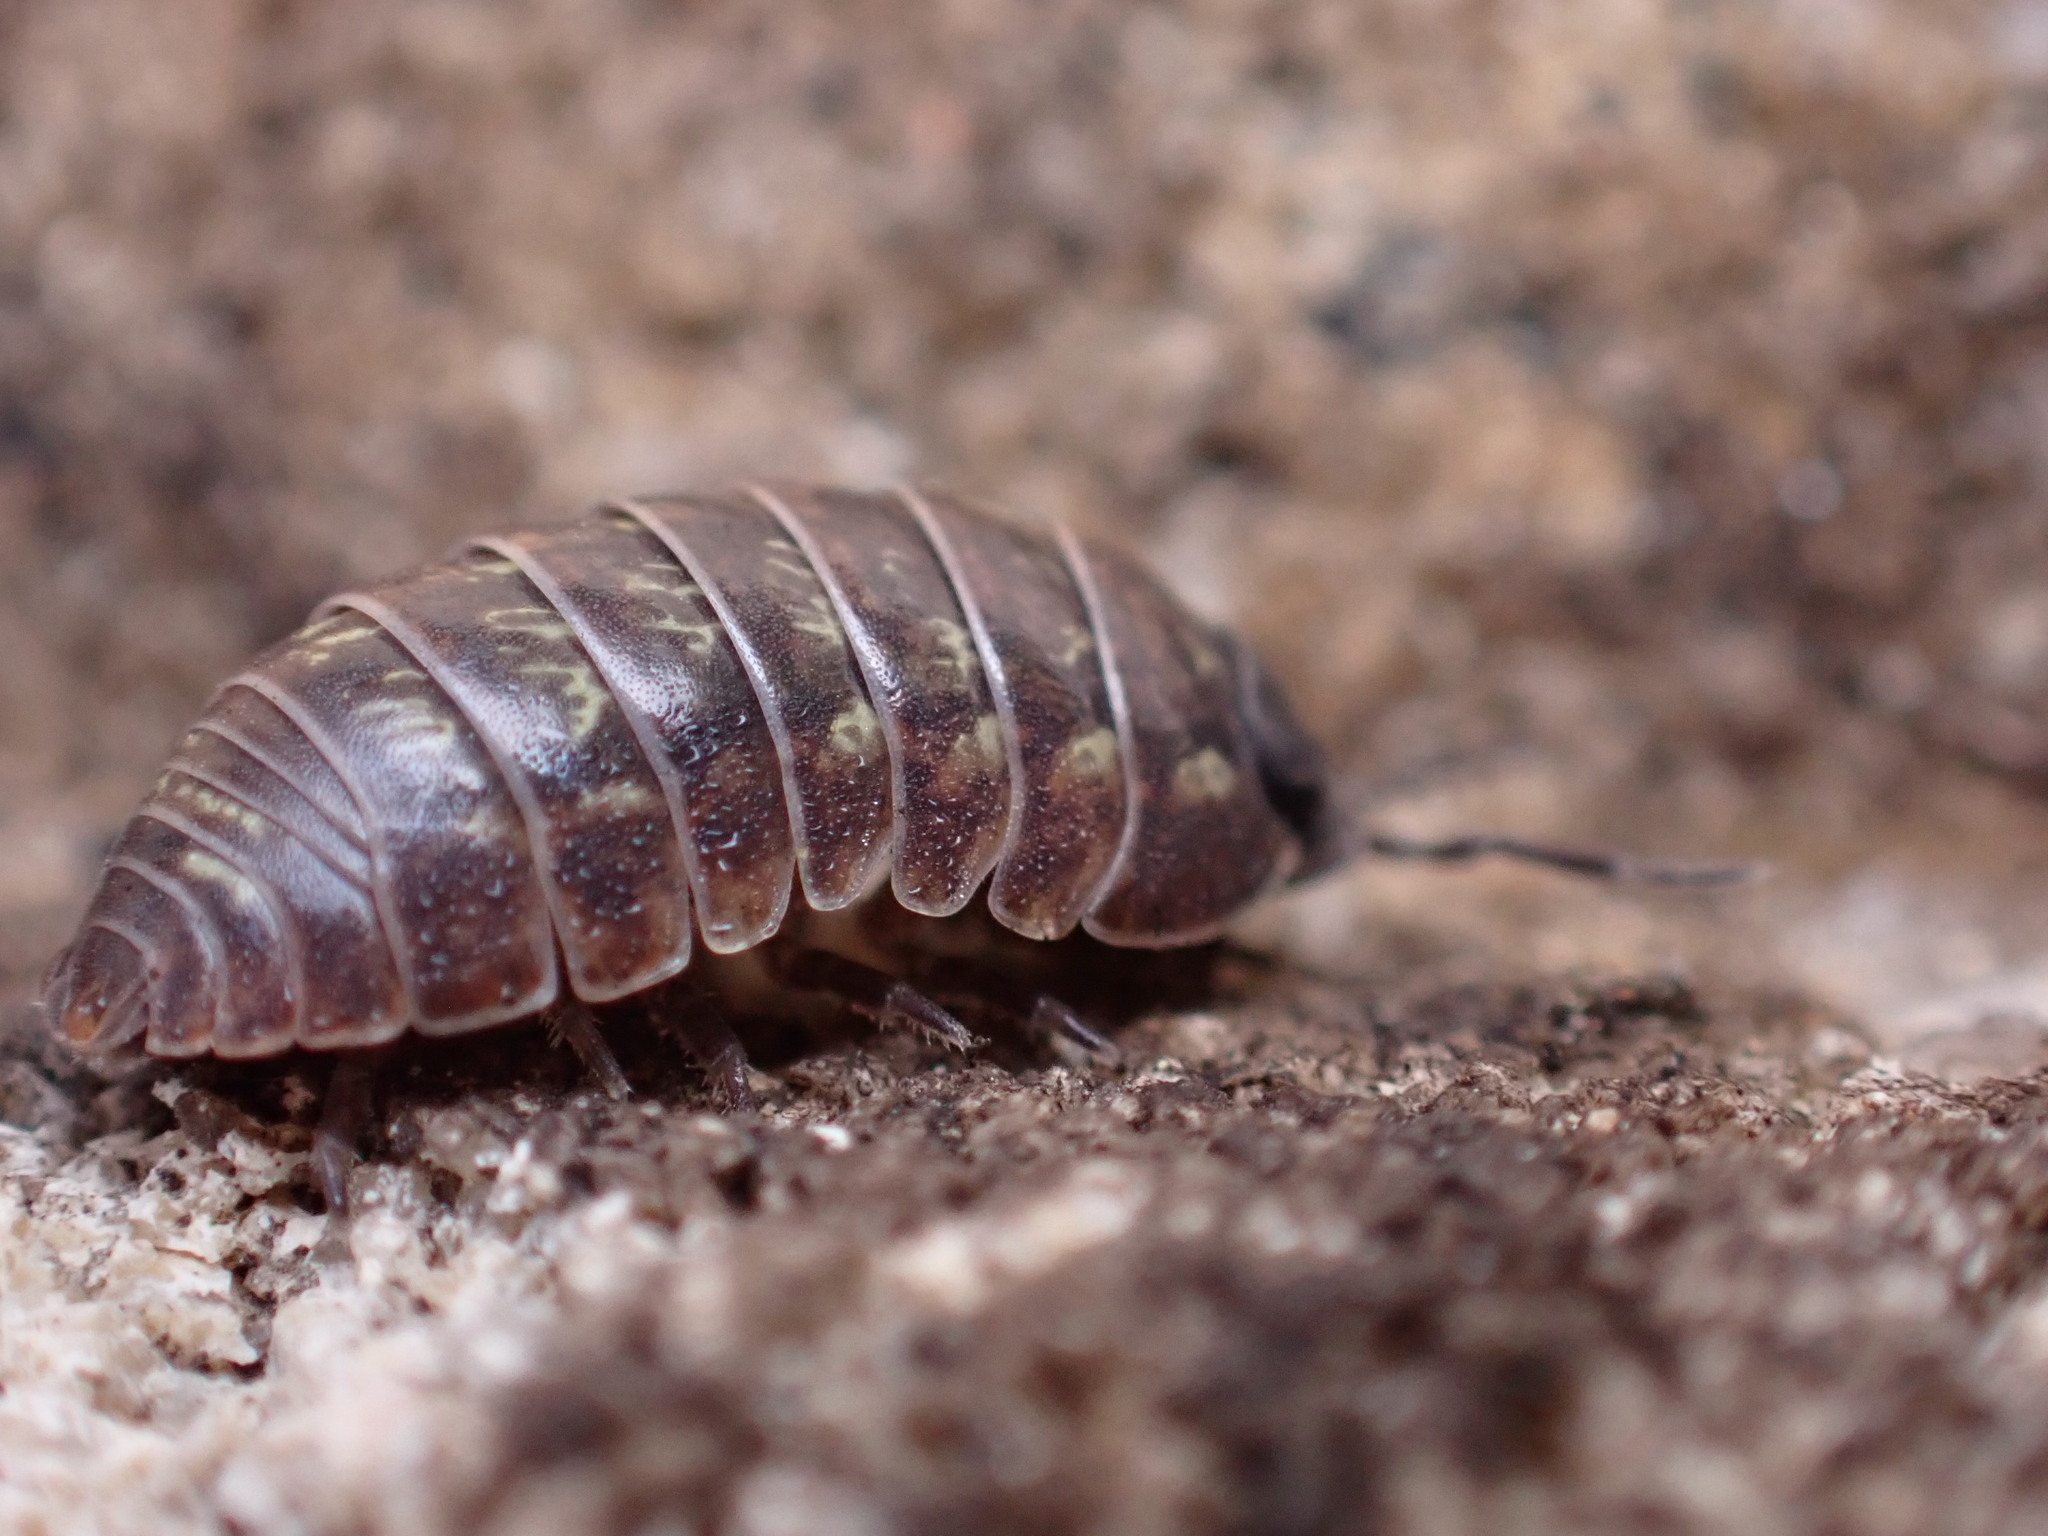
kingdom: Animalia
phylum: Arthropoda
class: Malacostraca
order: Isopoda
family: Armadillidiidae
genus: Armadillidium
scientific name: Armadillidium vulgare
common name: Common pill woodlouse
